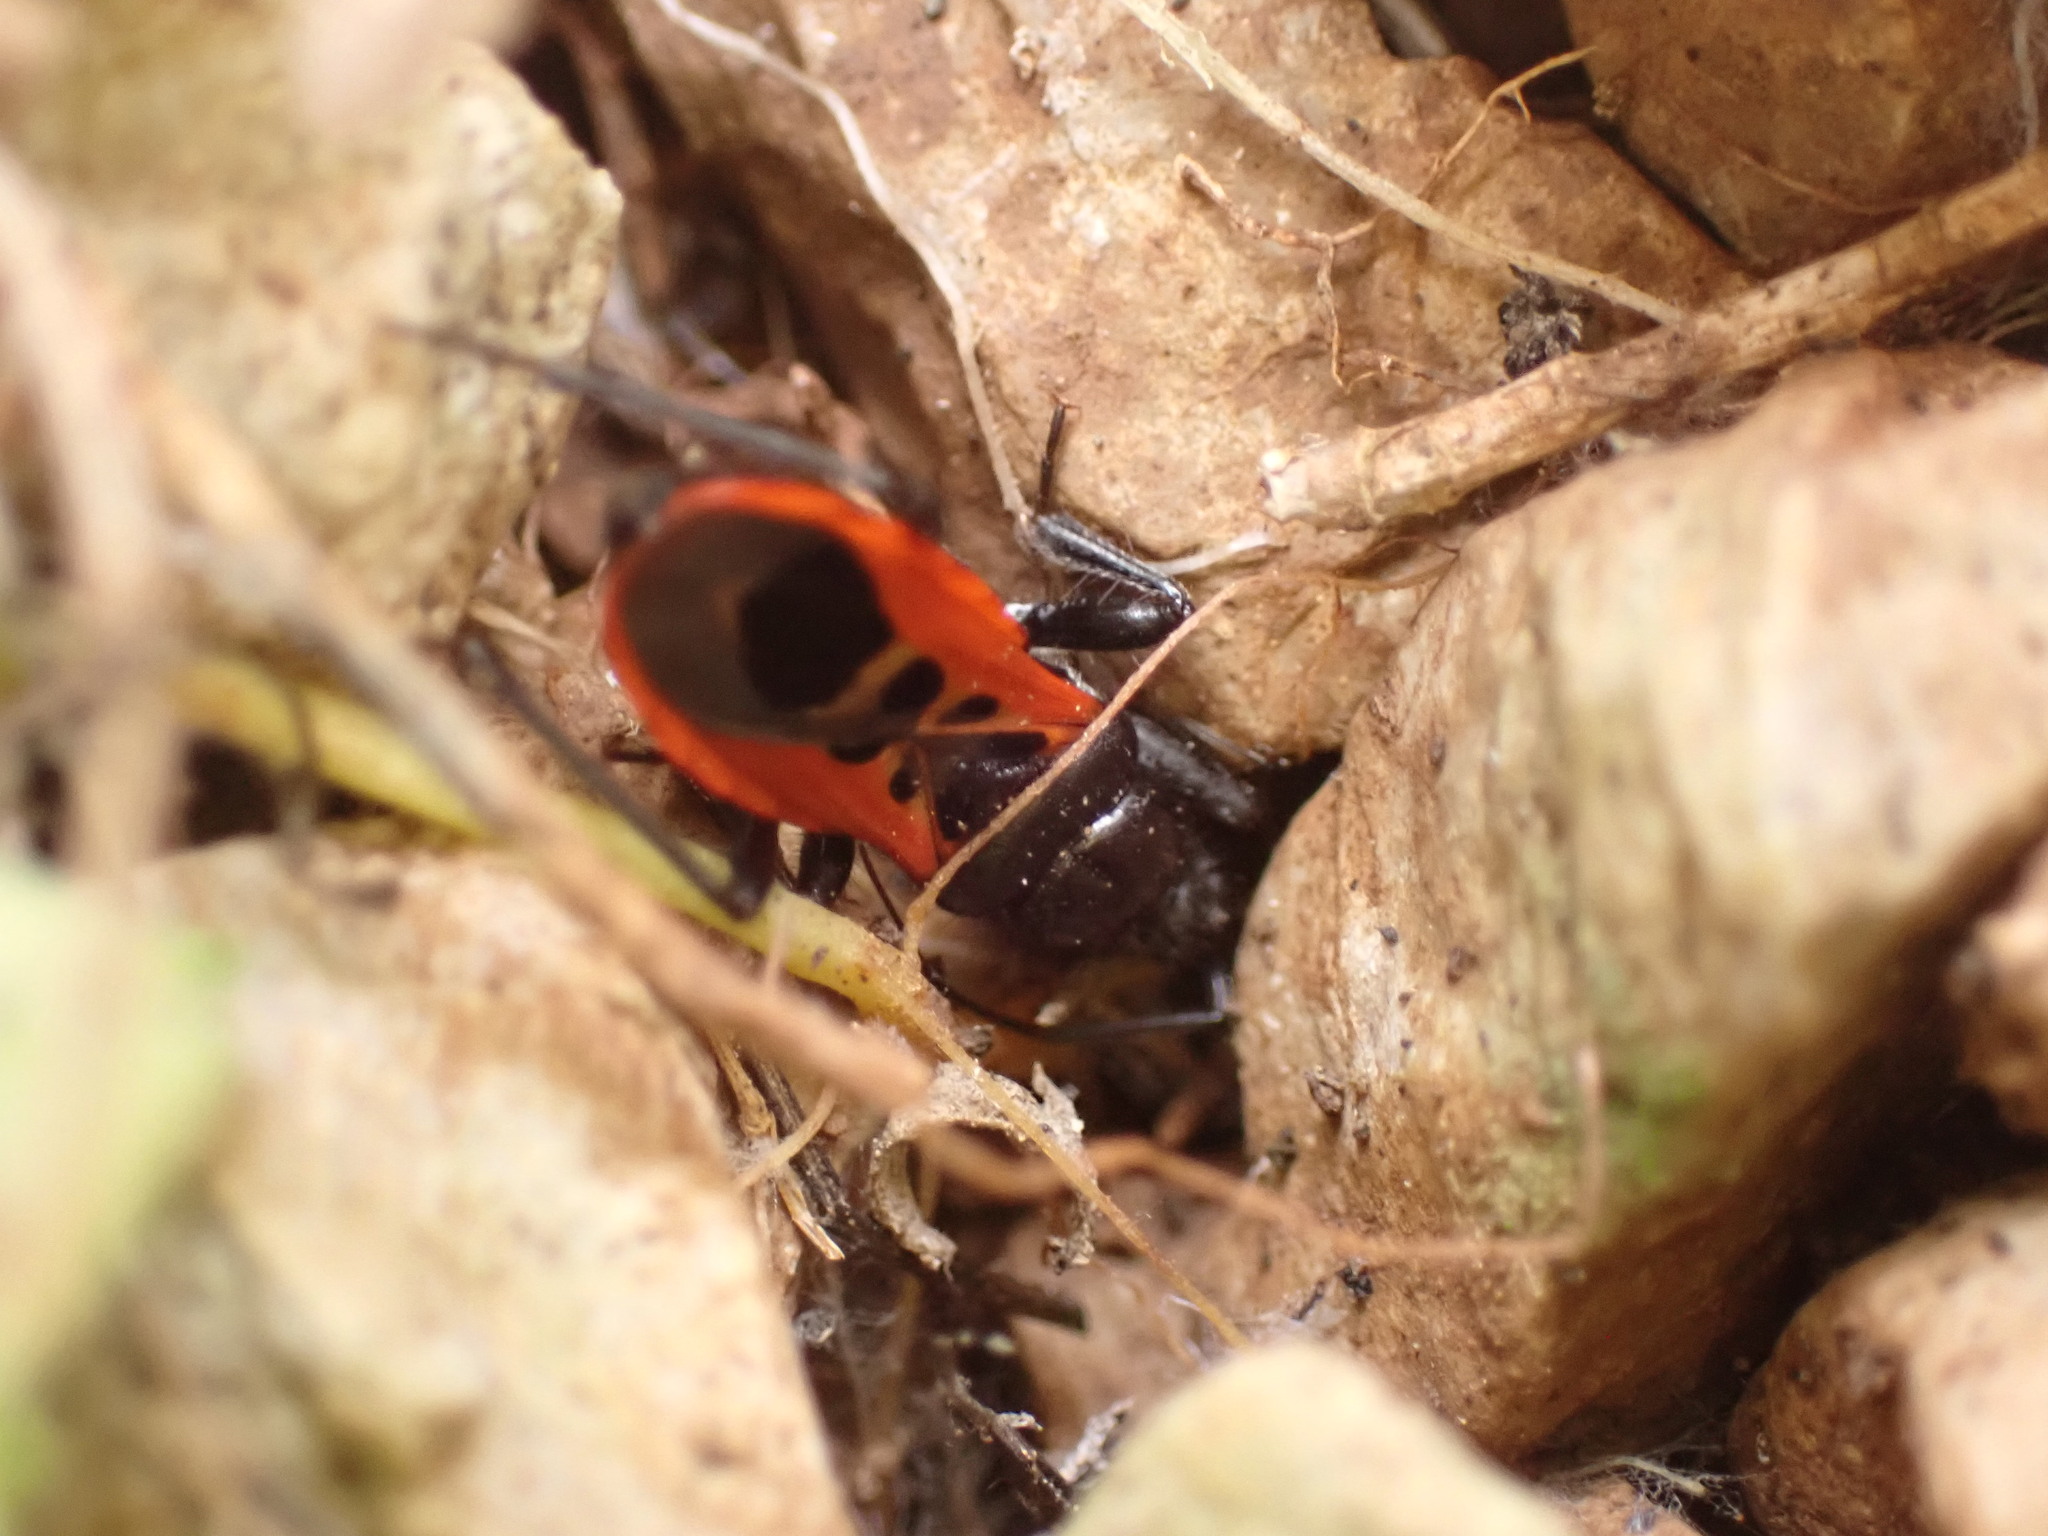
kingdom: Animalia
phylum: Arthropoda
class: Insecta
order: Hemiptera
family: Reduviidae
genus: Peirates
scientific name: Peirates stridulus
